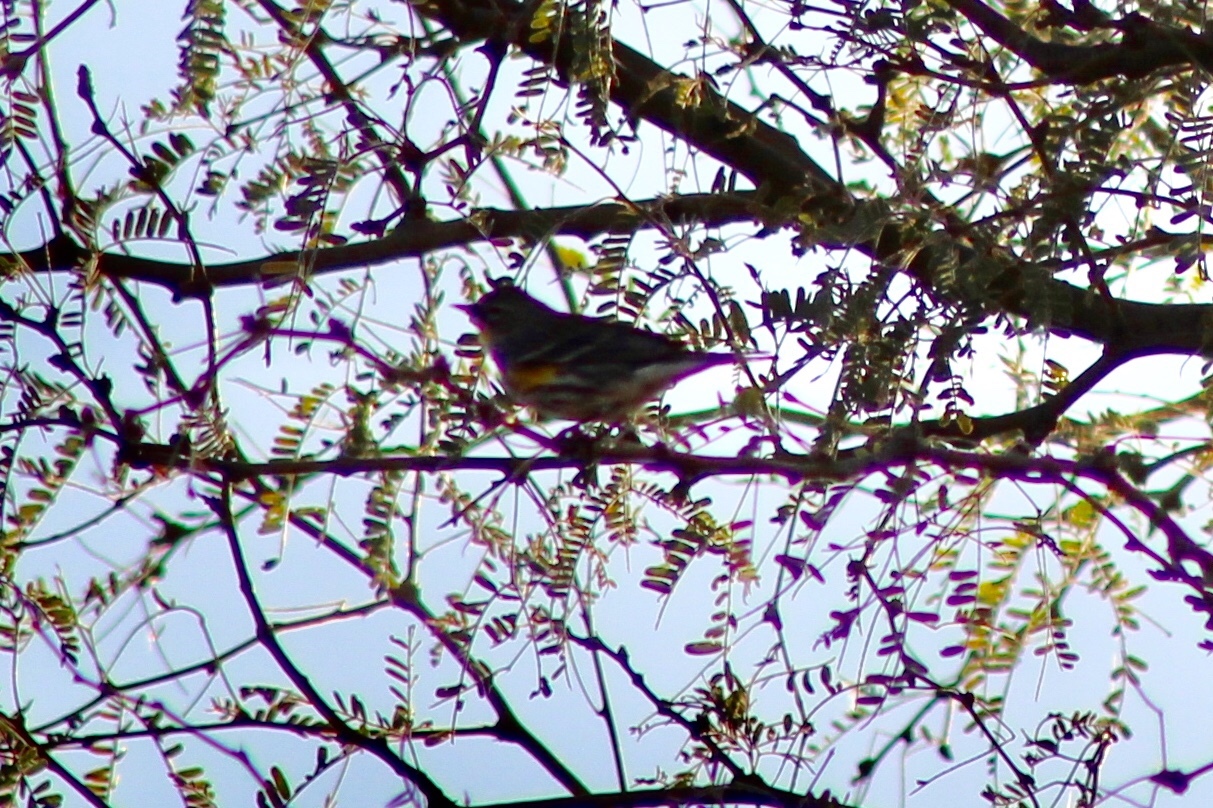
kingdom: Animalia
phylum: Chordata
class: Aves
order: Passeriformes
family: Parulidae
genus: Setophaga
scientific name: Setophaga auduboni
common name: Audubon's warbler
